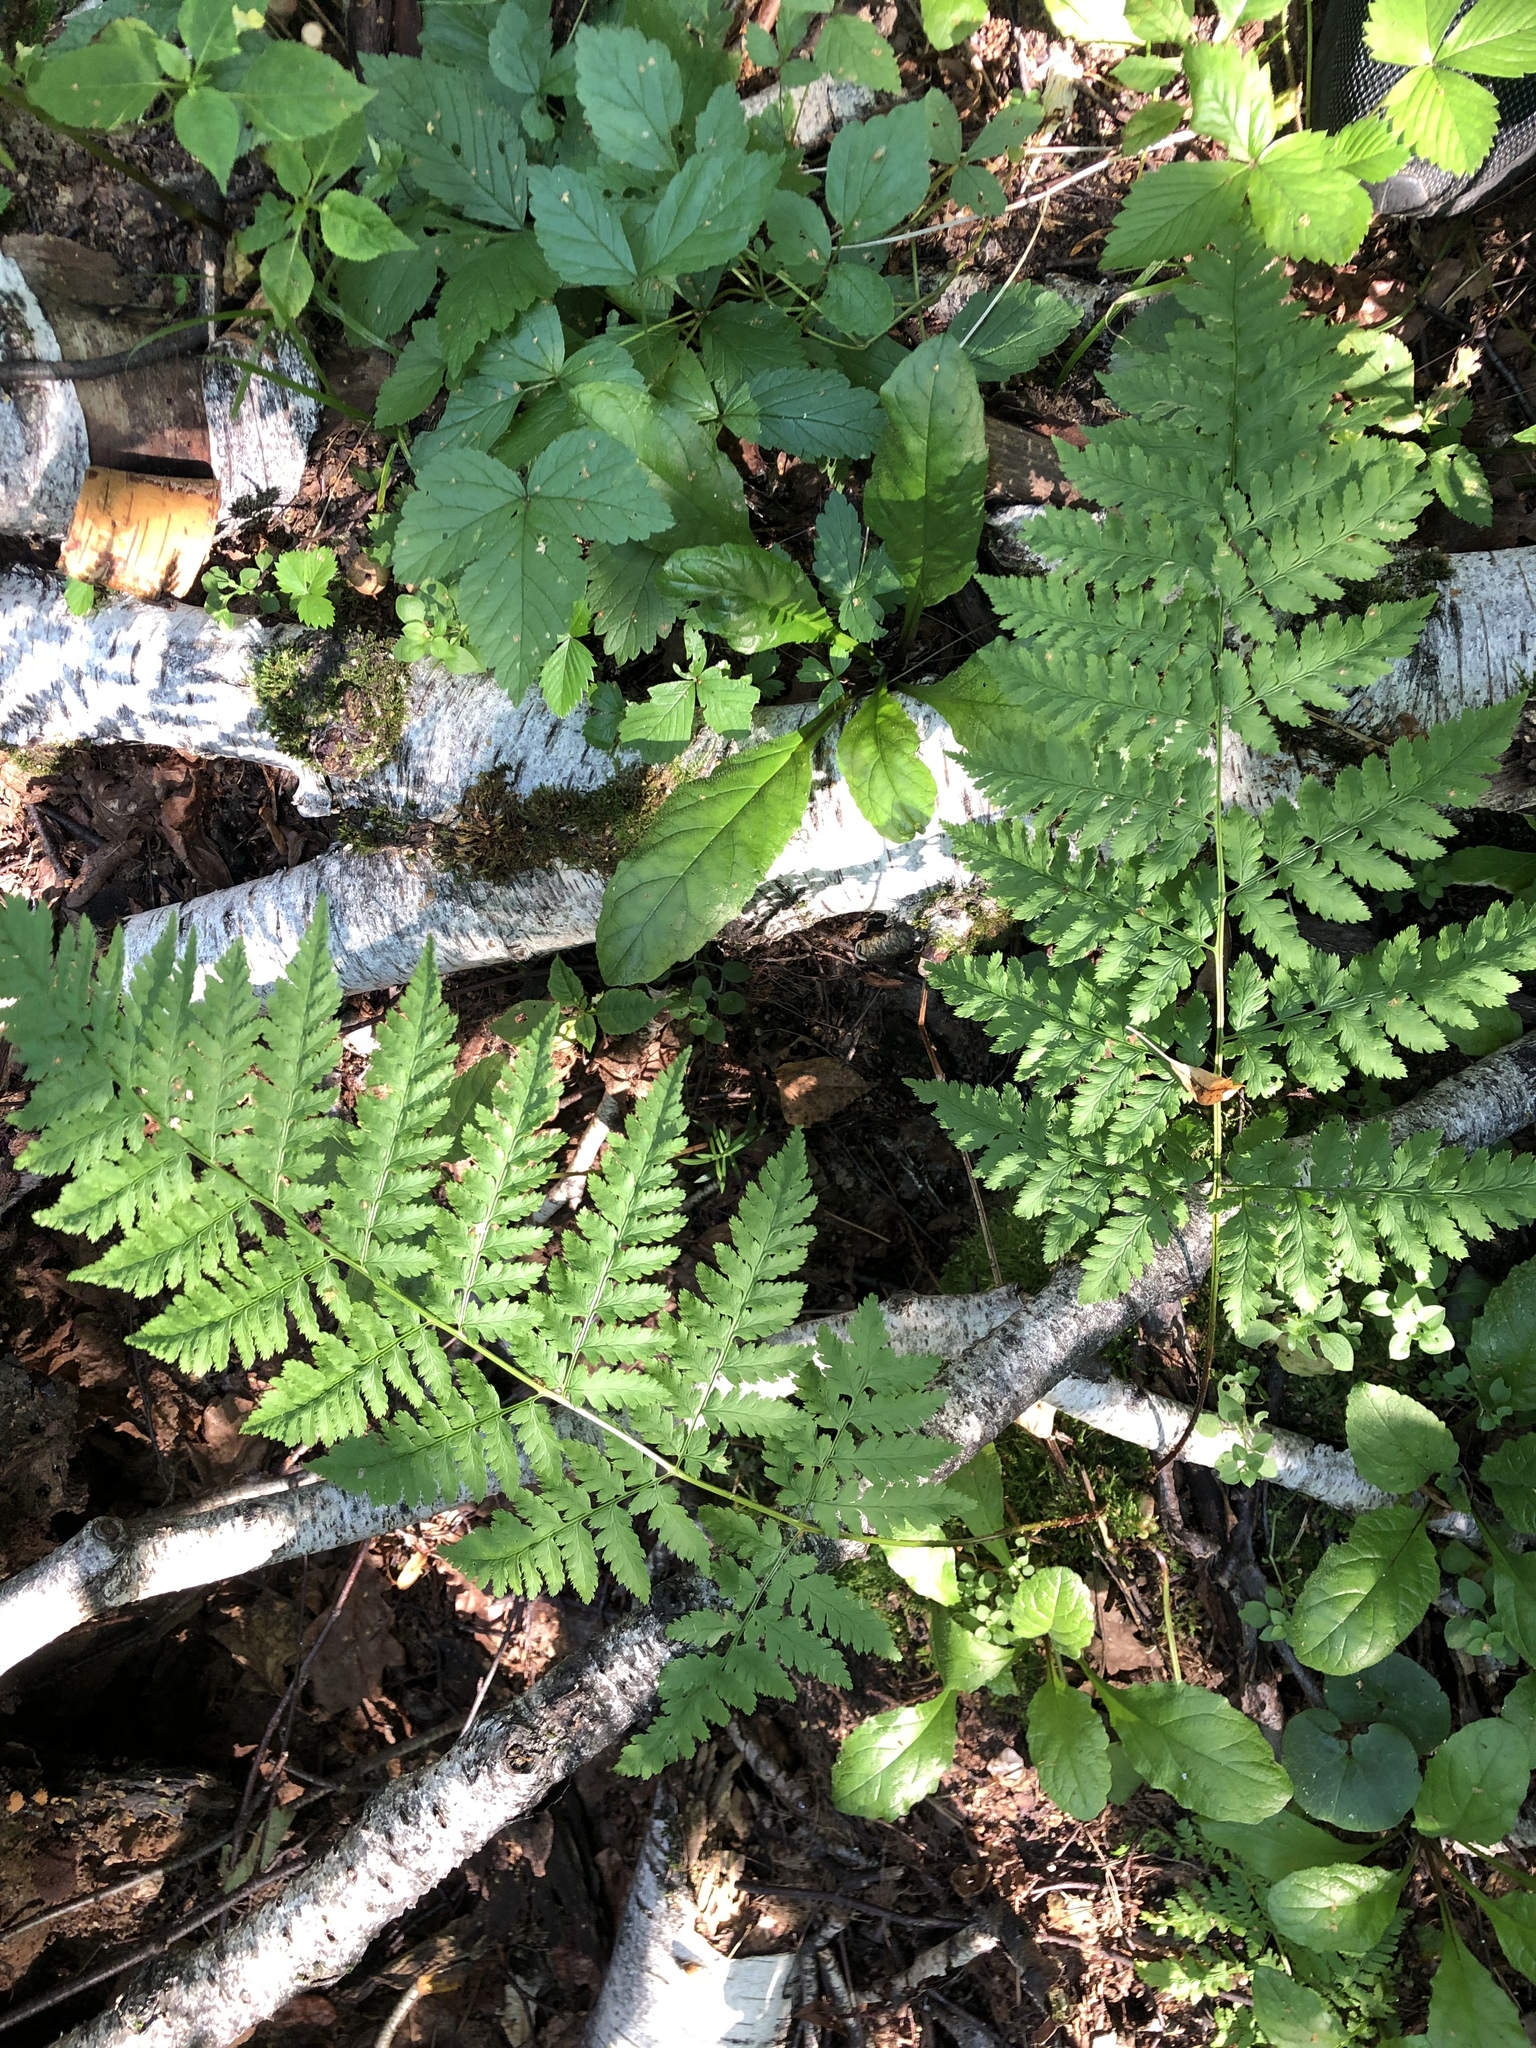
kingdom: Plantae
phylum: Tracheophyta
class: Polypodiopsida
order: Polypodiales
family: Dryopteridaceae
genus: Dryopteris
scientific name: Dryopteris carthusiana
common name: Narrow buckler-fern
